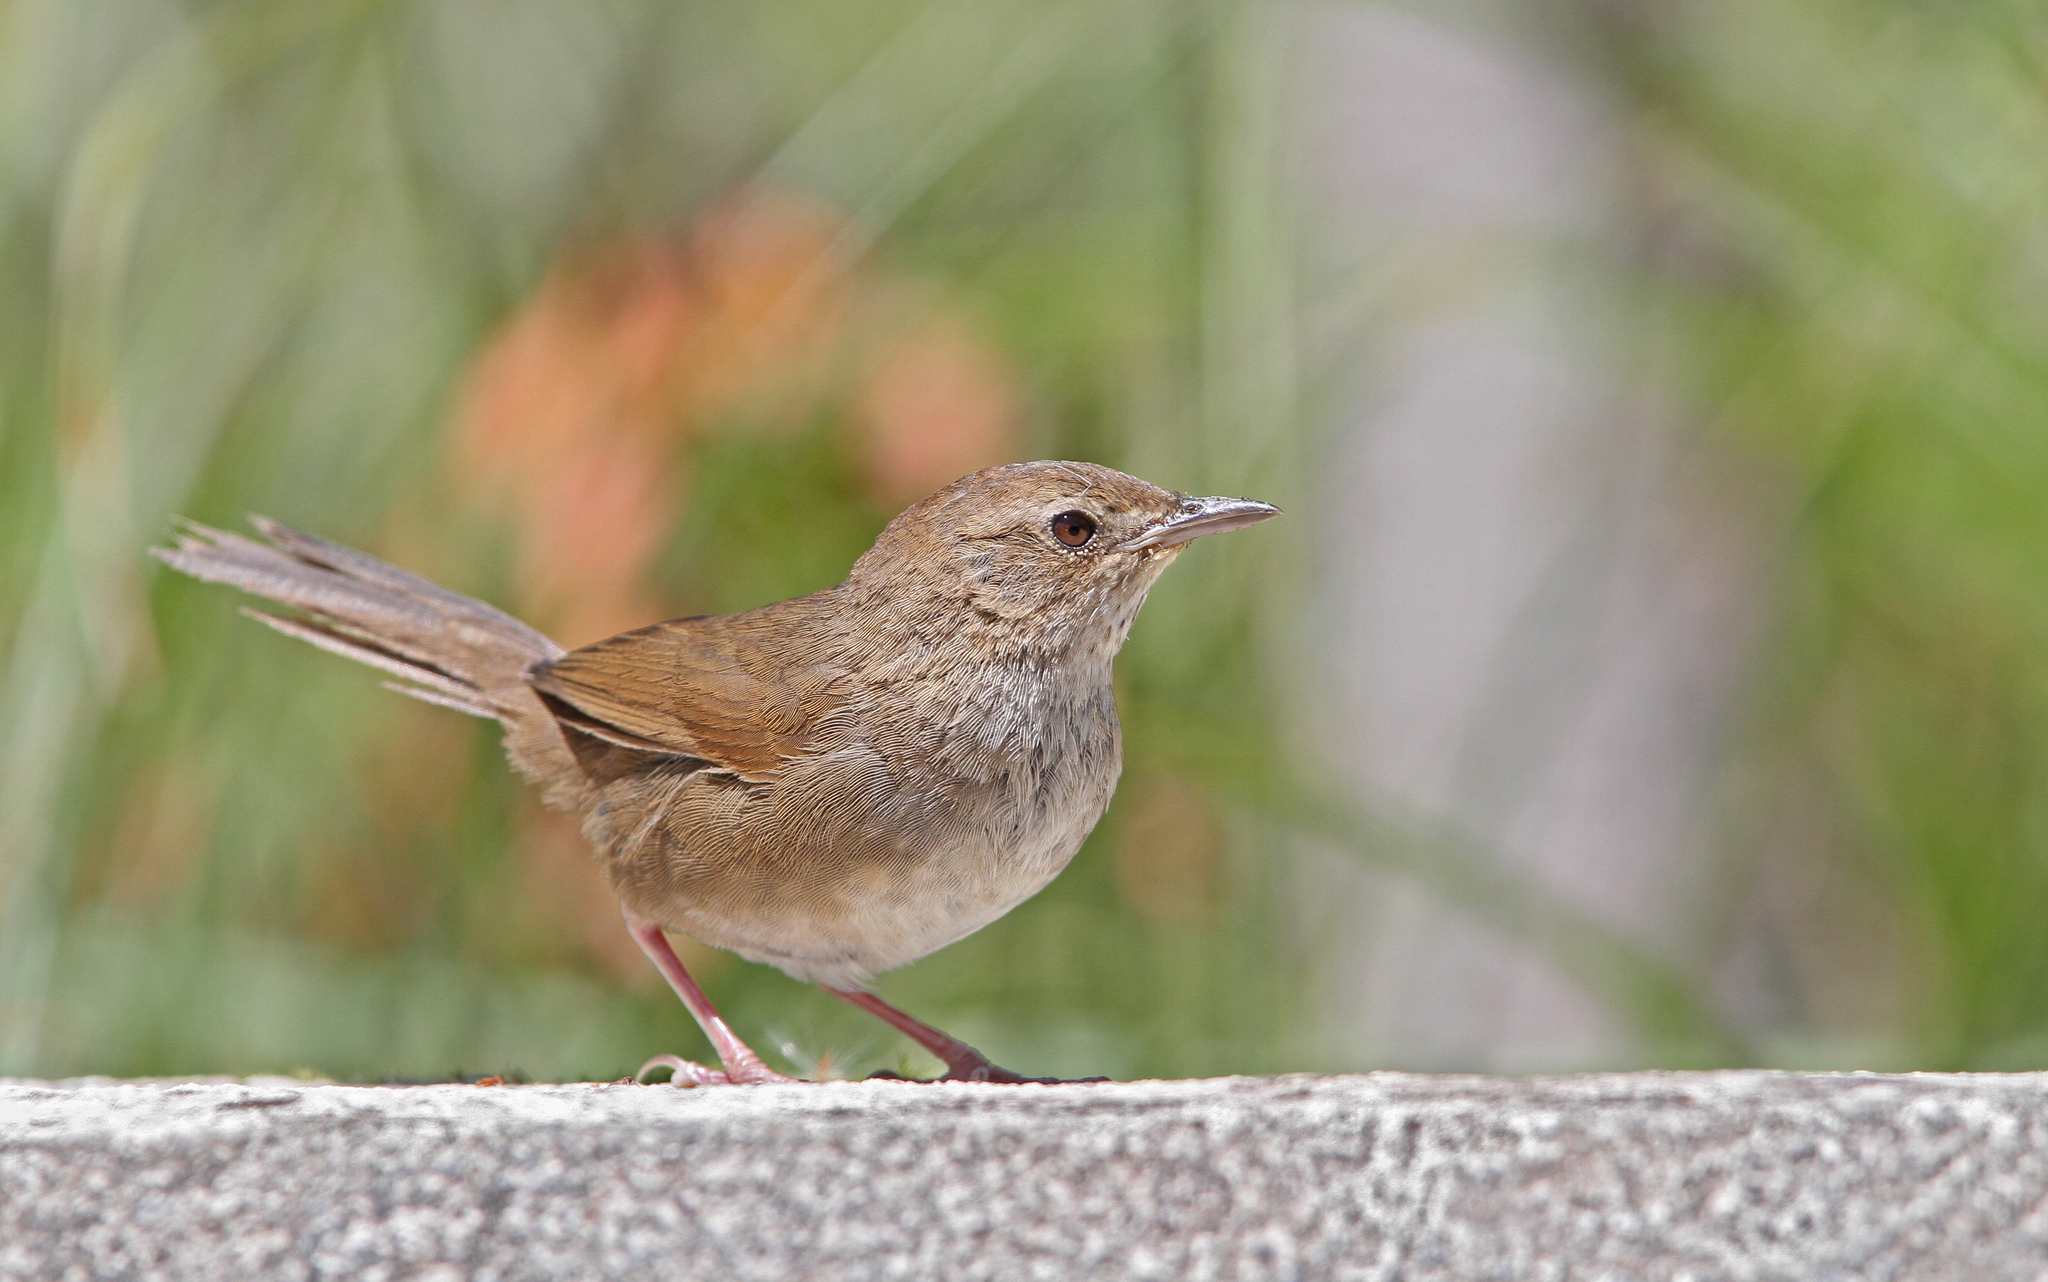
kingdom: Animalia
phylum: Chordata
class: Aves
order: Passeriformes
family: Locustellidae
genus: Locustella
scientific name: Locustella alishanensis
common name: Taiwan bush warbler
